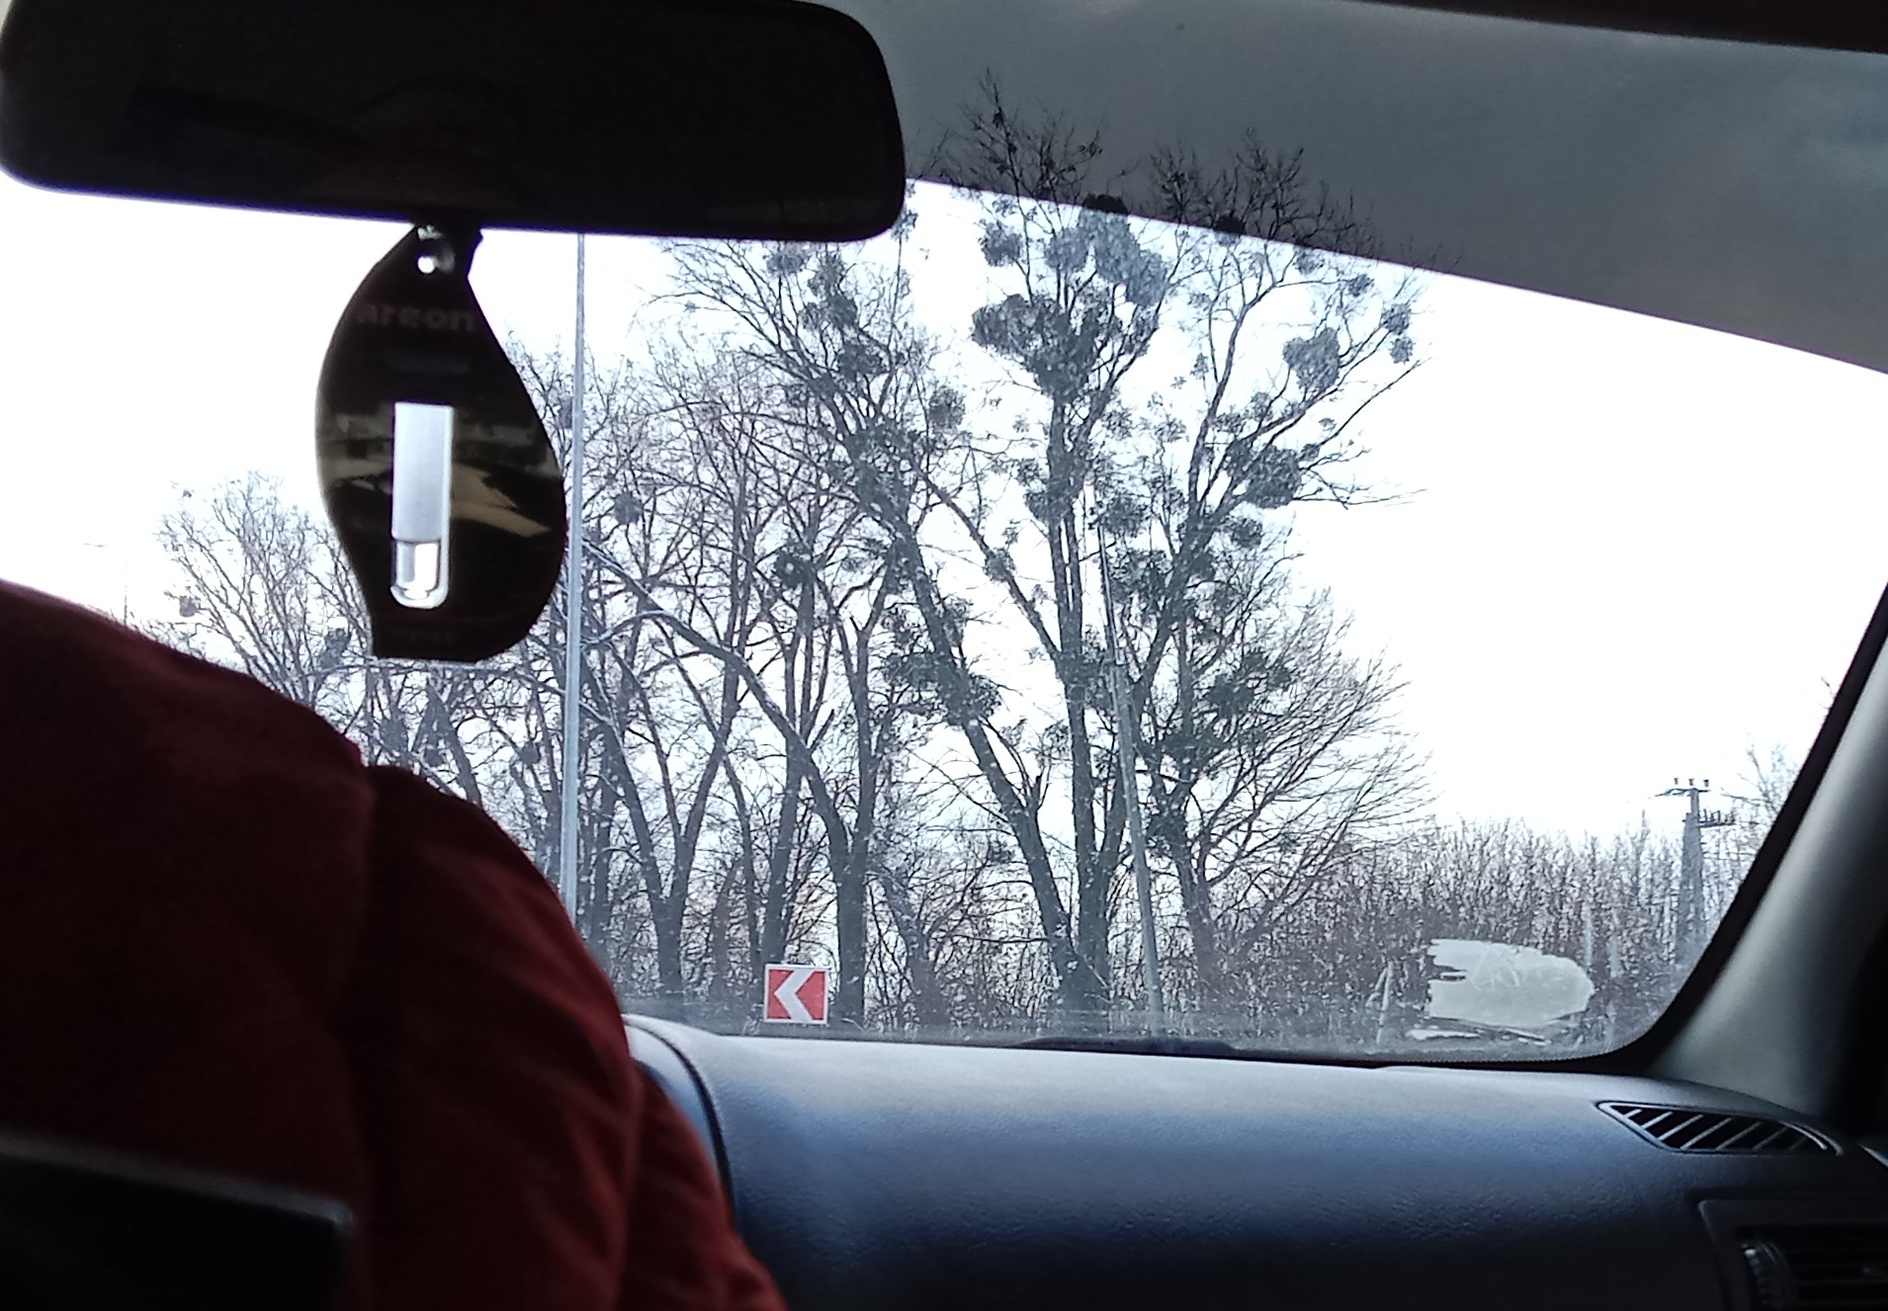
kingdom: Plantae
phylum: Tracheophyta
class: Magnoliopsida
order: Santalales
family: Viscaceae
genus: Viscum
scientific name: Viscum album
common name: Mistletoe
